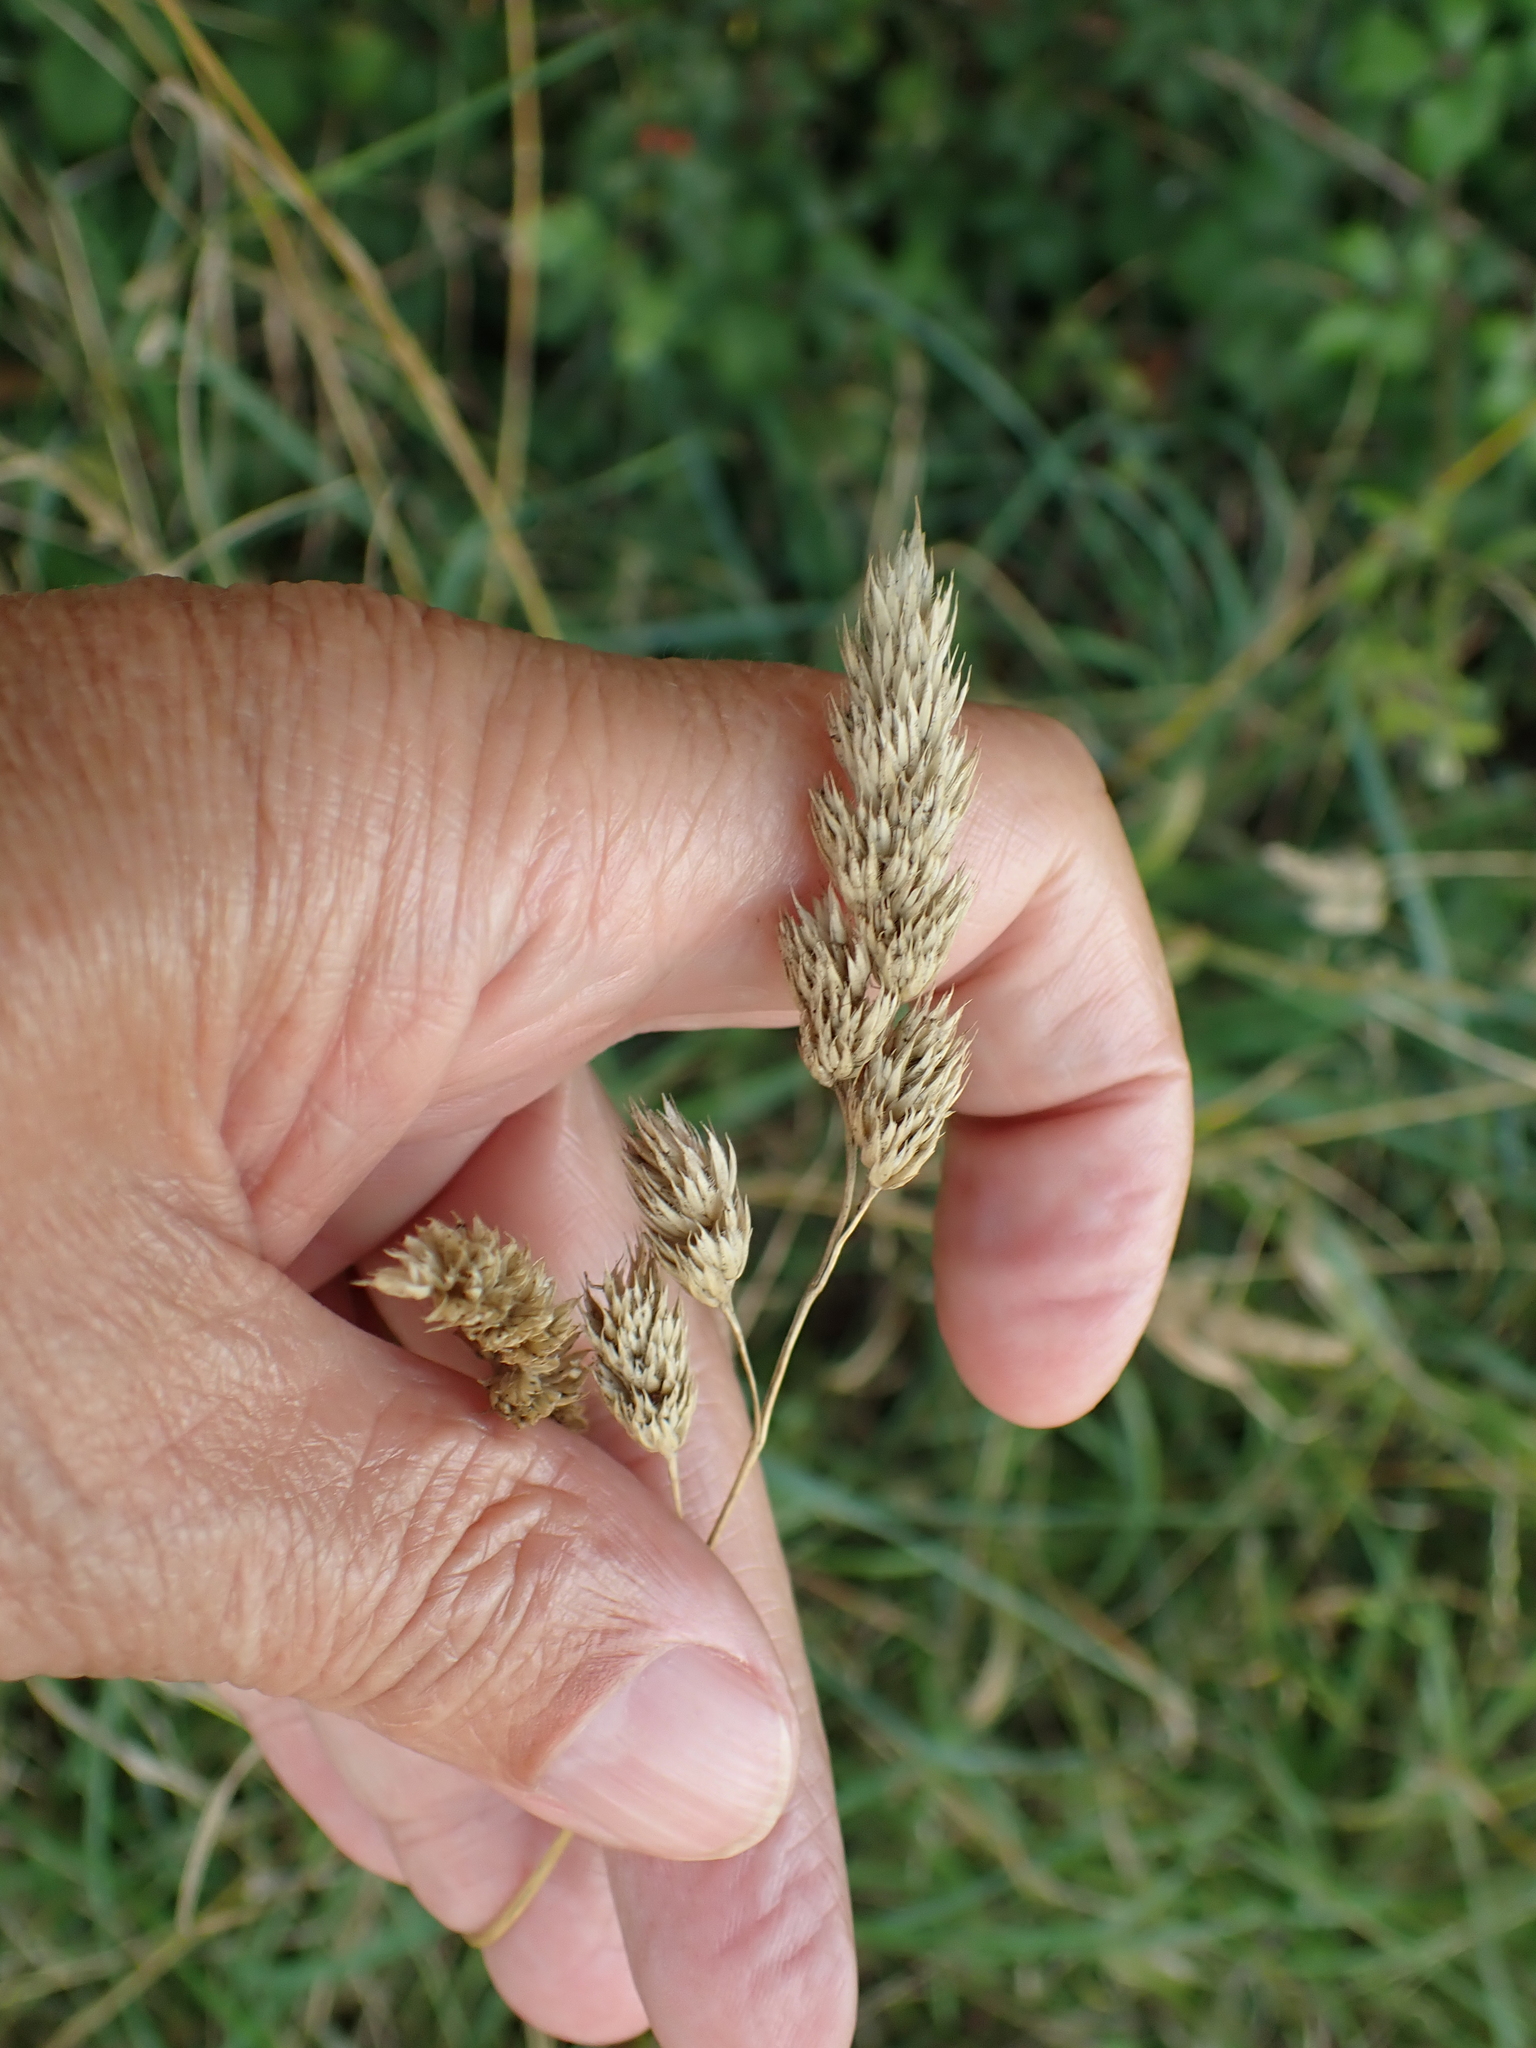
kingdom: Plantae
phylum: Tracheophyta
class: Liliopsida
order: Poales
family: Poaceae
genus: Dactylis
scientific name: Dactylis glomerata
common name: Orchardgrass
